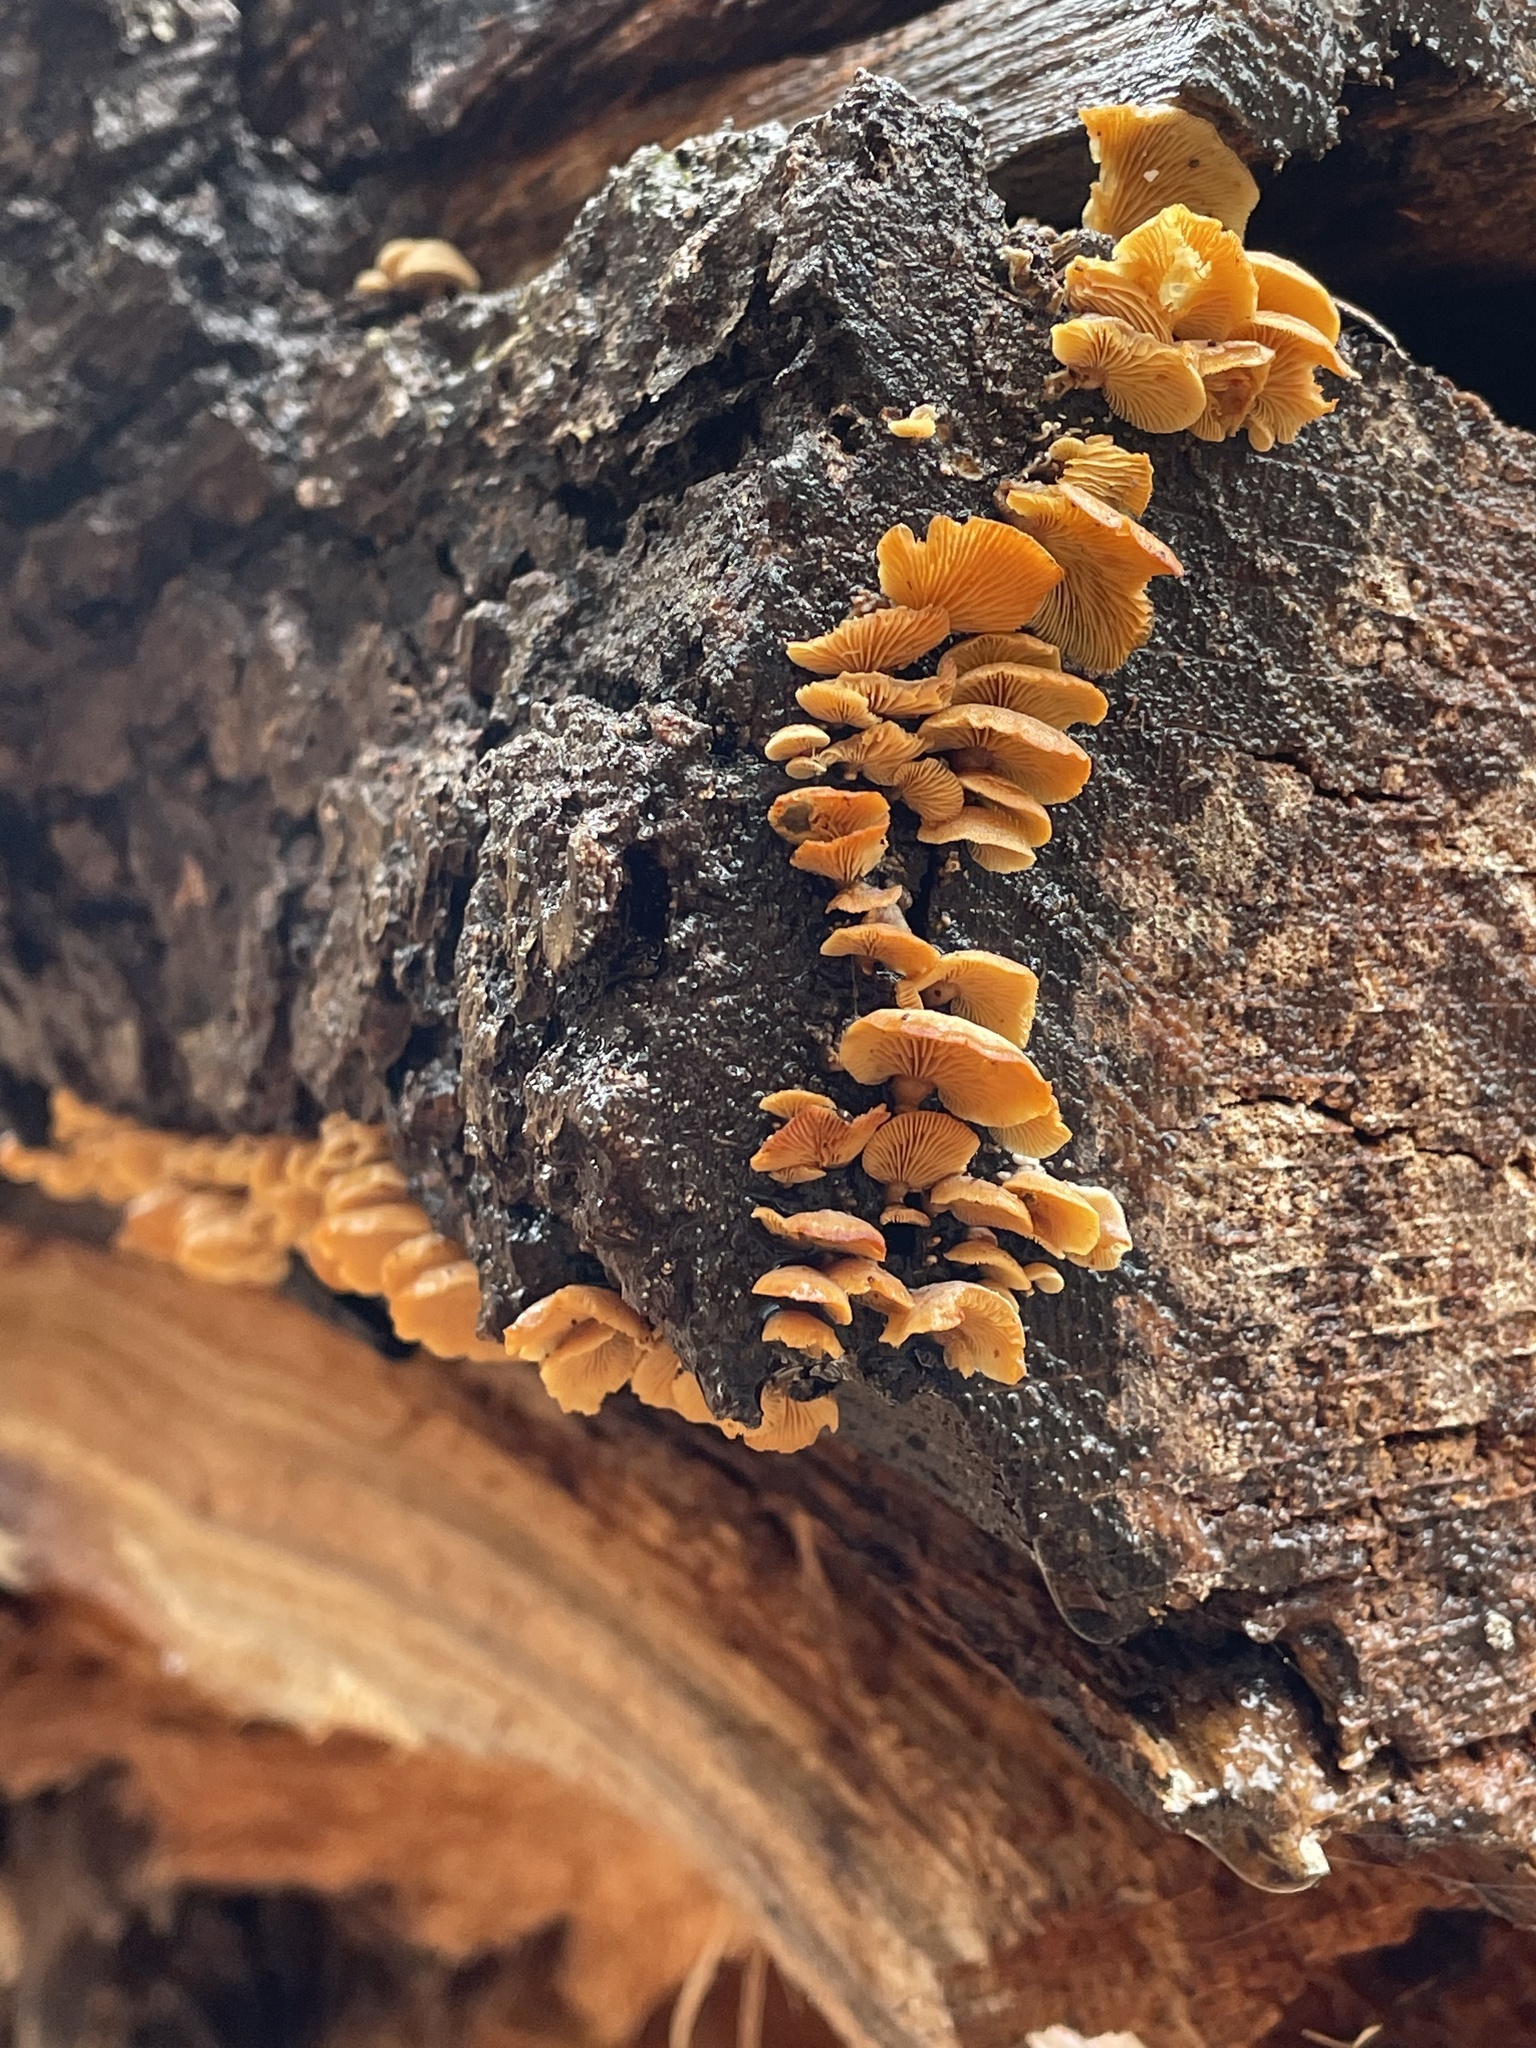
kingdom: Fungi
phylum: Basidiomycota
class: Agaricomycetes
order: Agaricales
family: Mycenaceae
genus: Panellus
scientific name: Panellus stipticus
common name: Bitter oysterling
